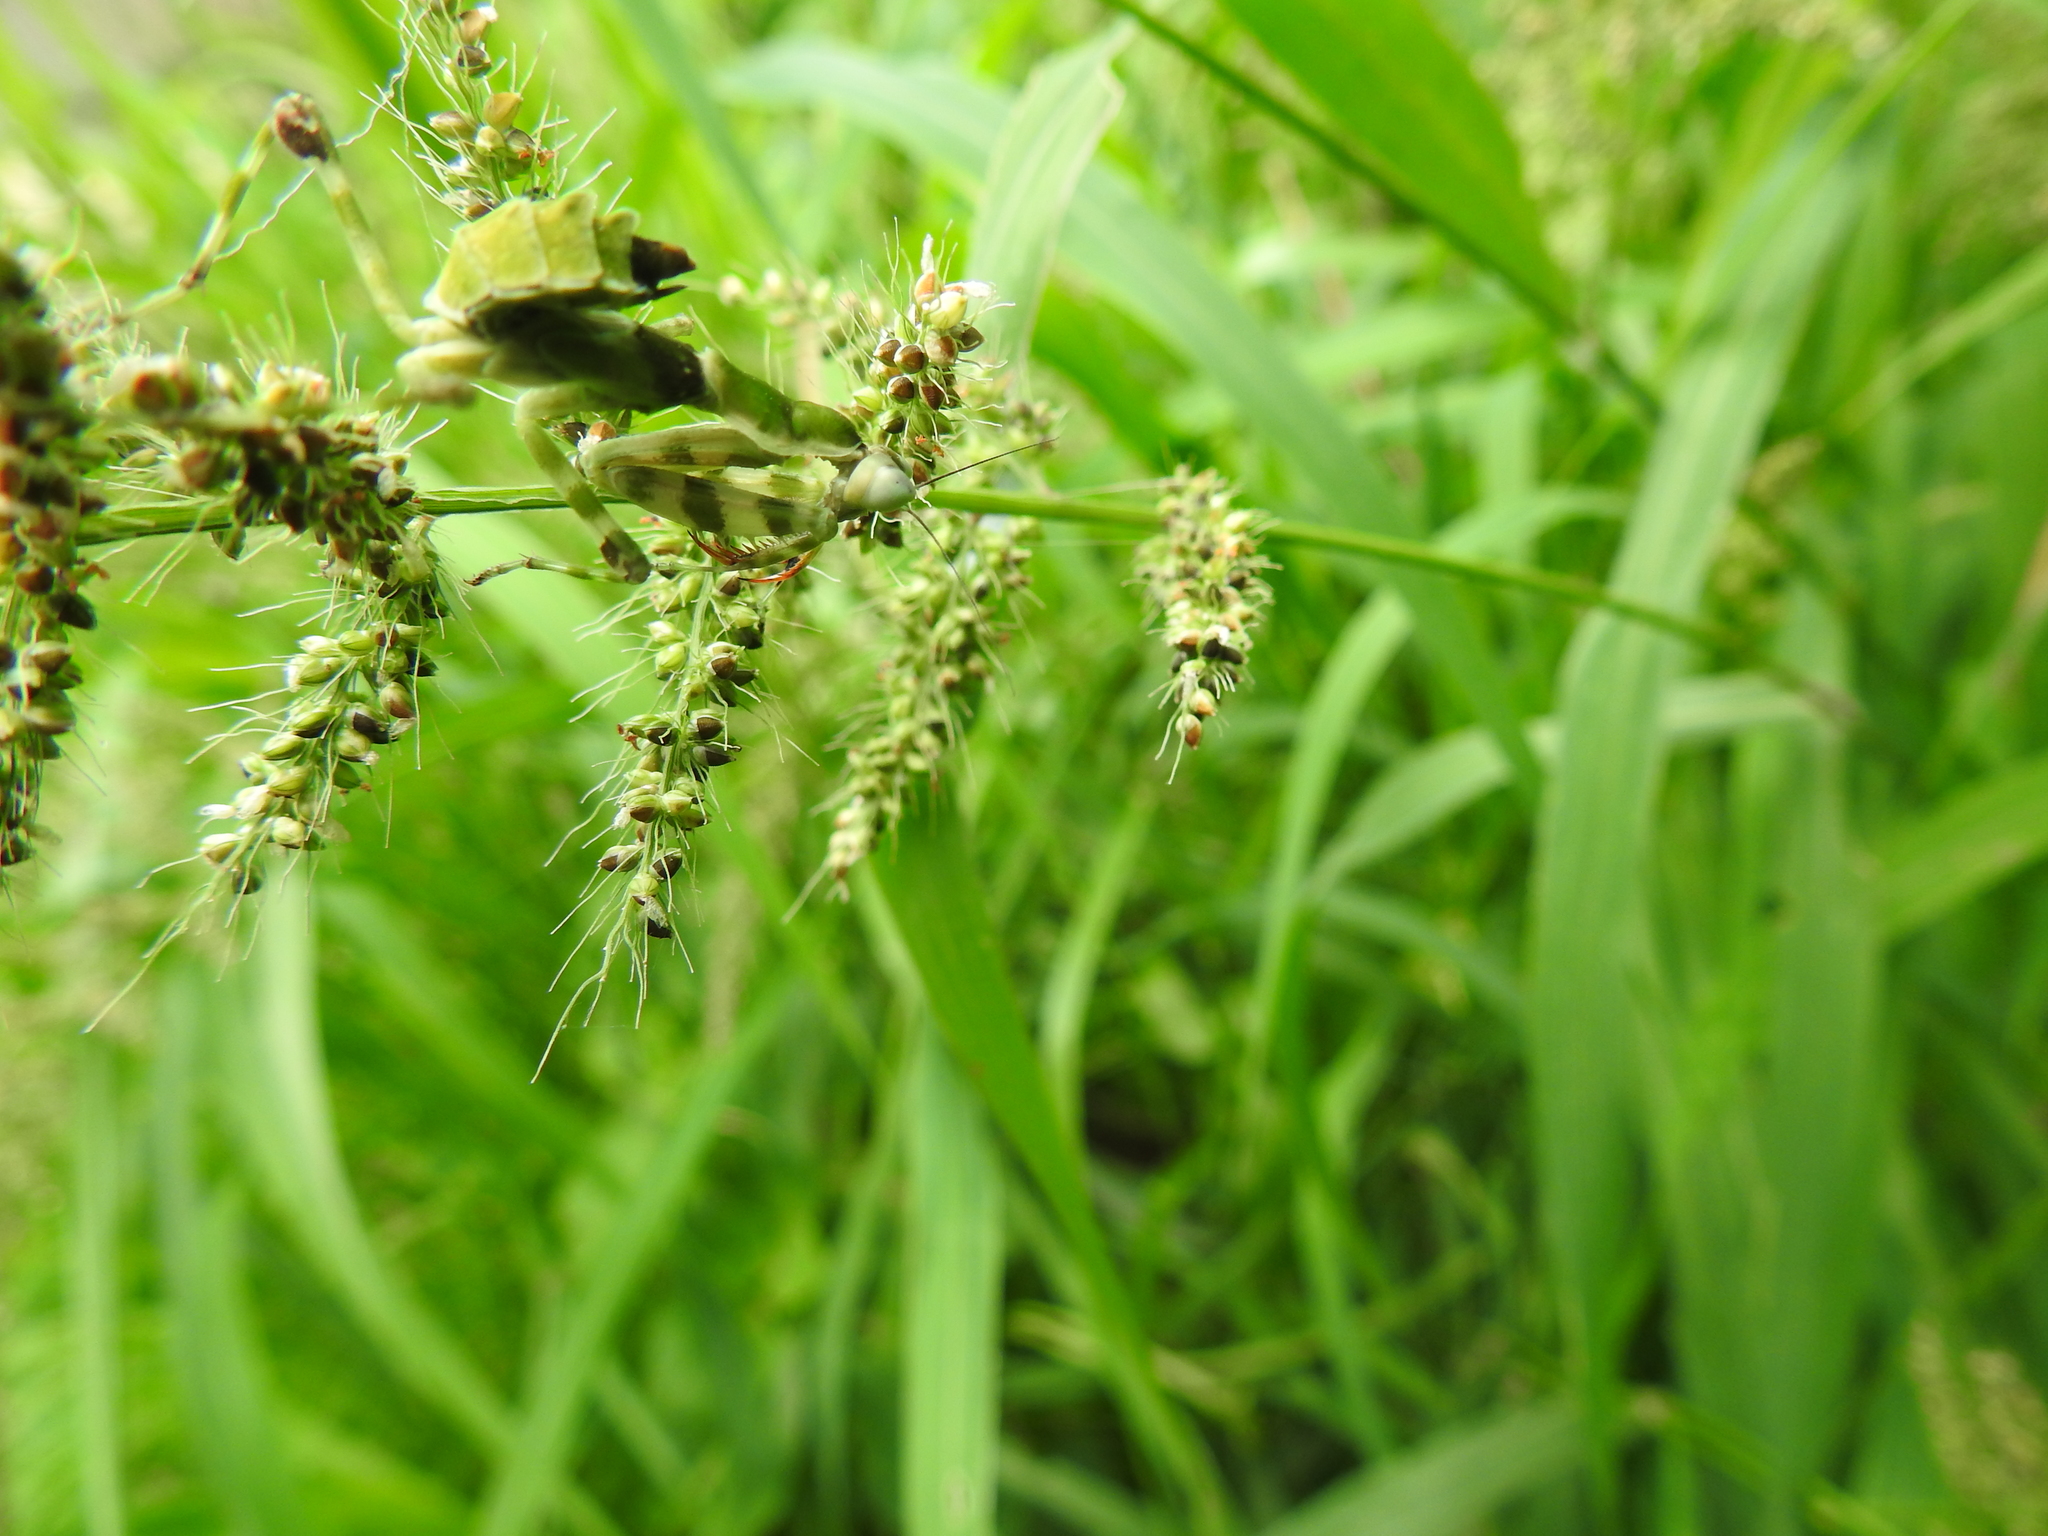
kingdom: Animalia
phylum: Arthropoda
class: Insecta
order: Mantodea
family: Hymenopodidae
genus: Creobroter
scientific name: Creobroter pictipennis
